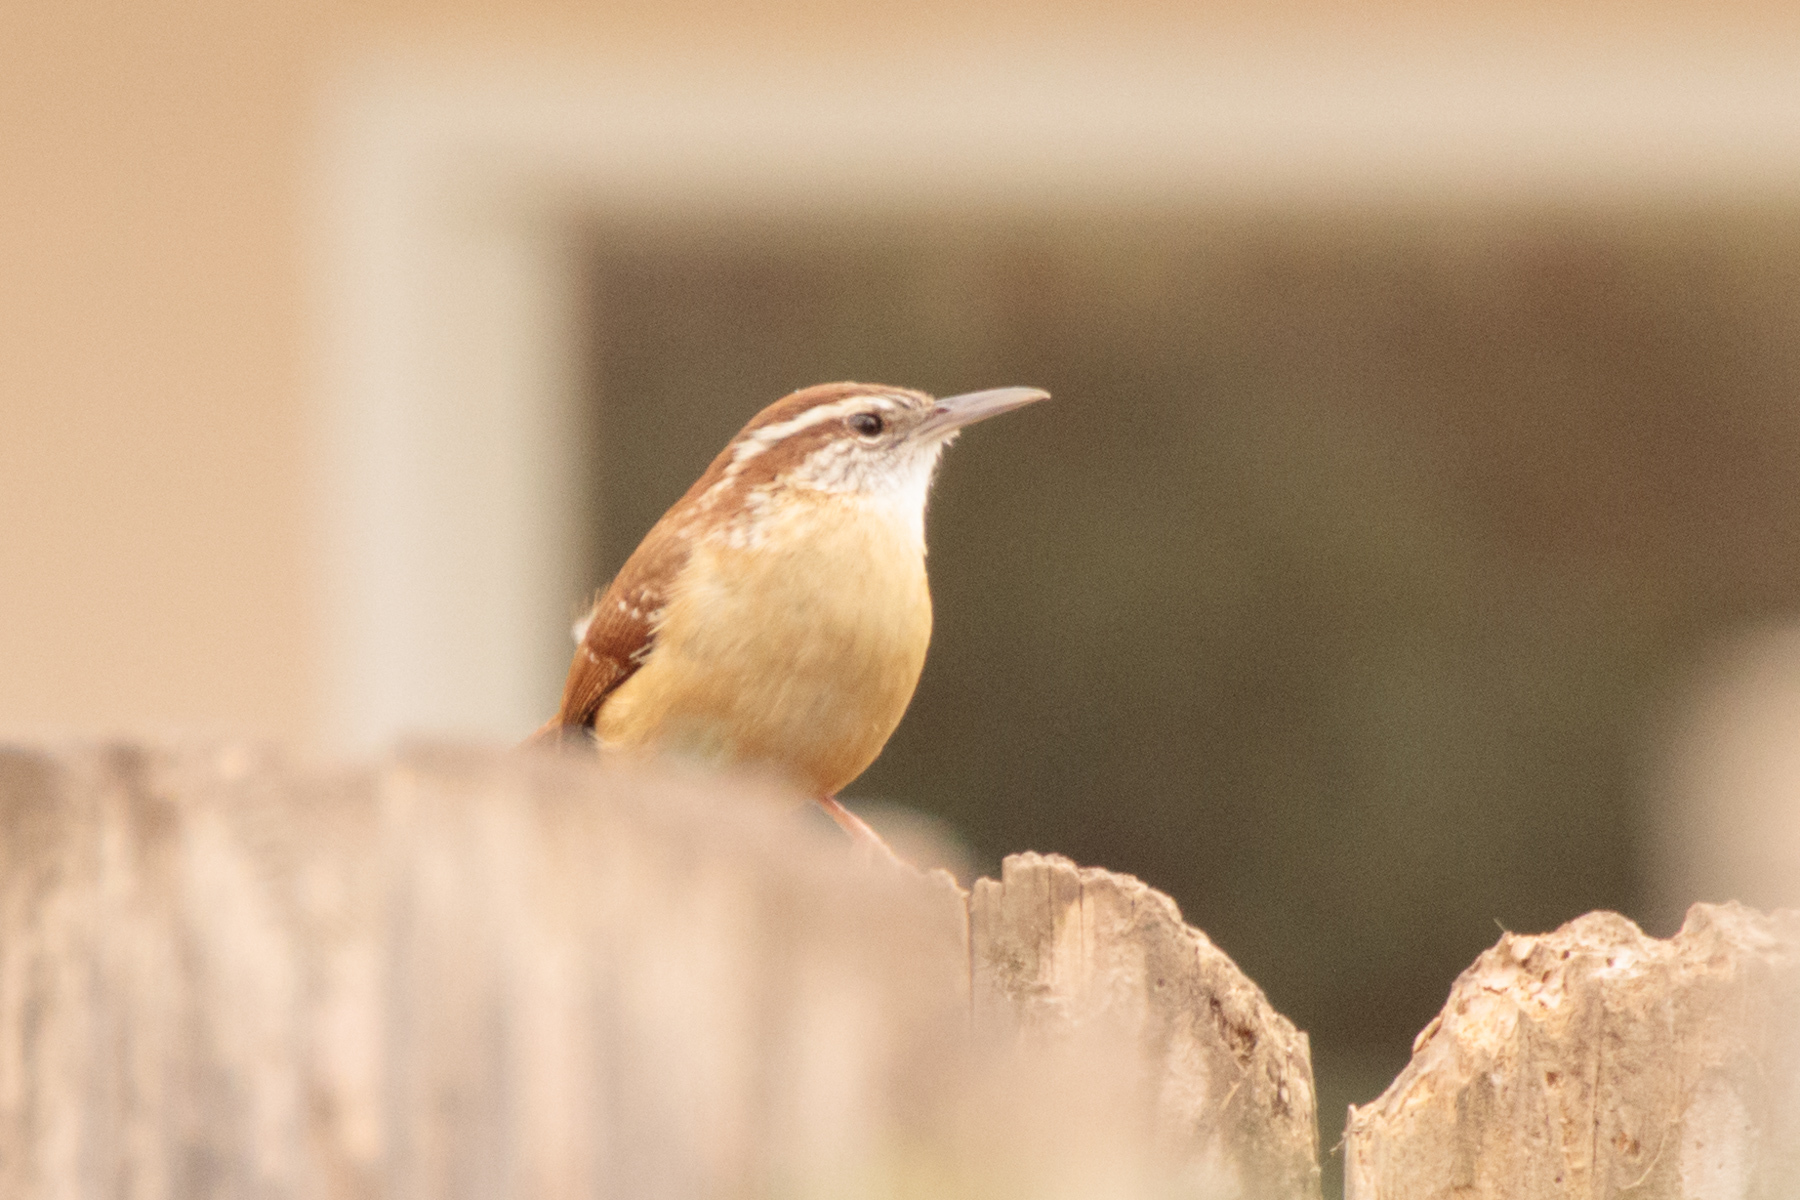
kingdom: Animalia
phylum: Chordata
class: Aves
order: Passeriformes
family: Troglodytidae
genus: Thryothorus
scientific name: Thryothorus ludovicianus
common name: Carolina wren
